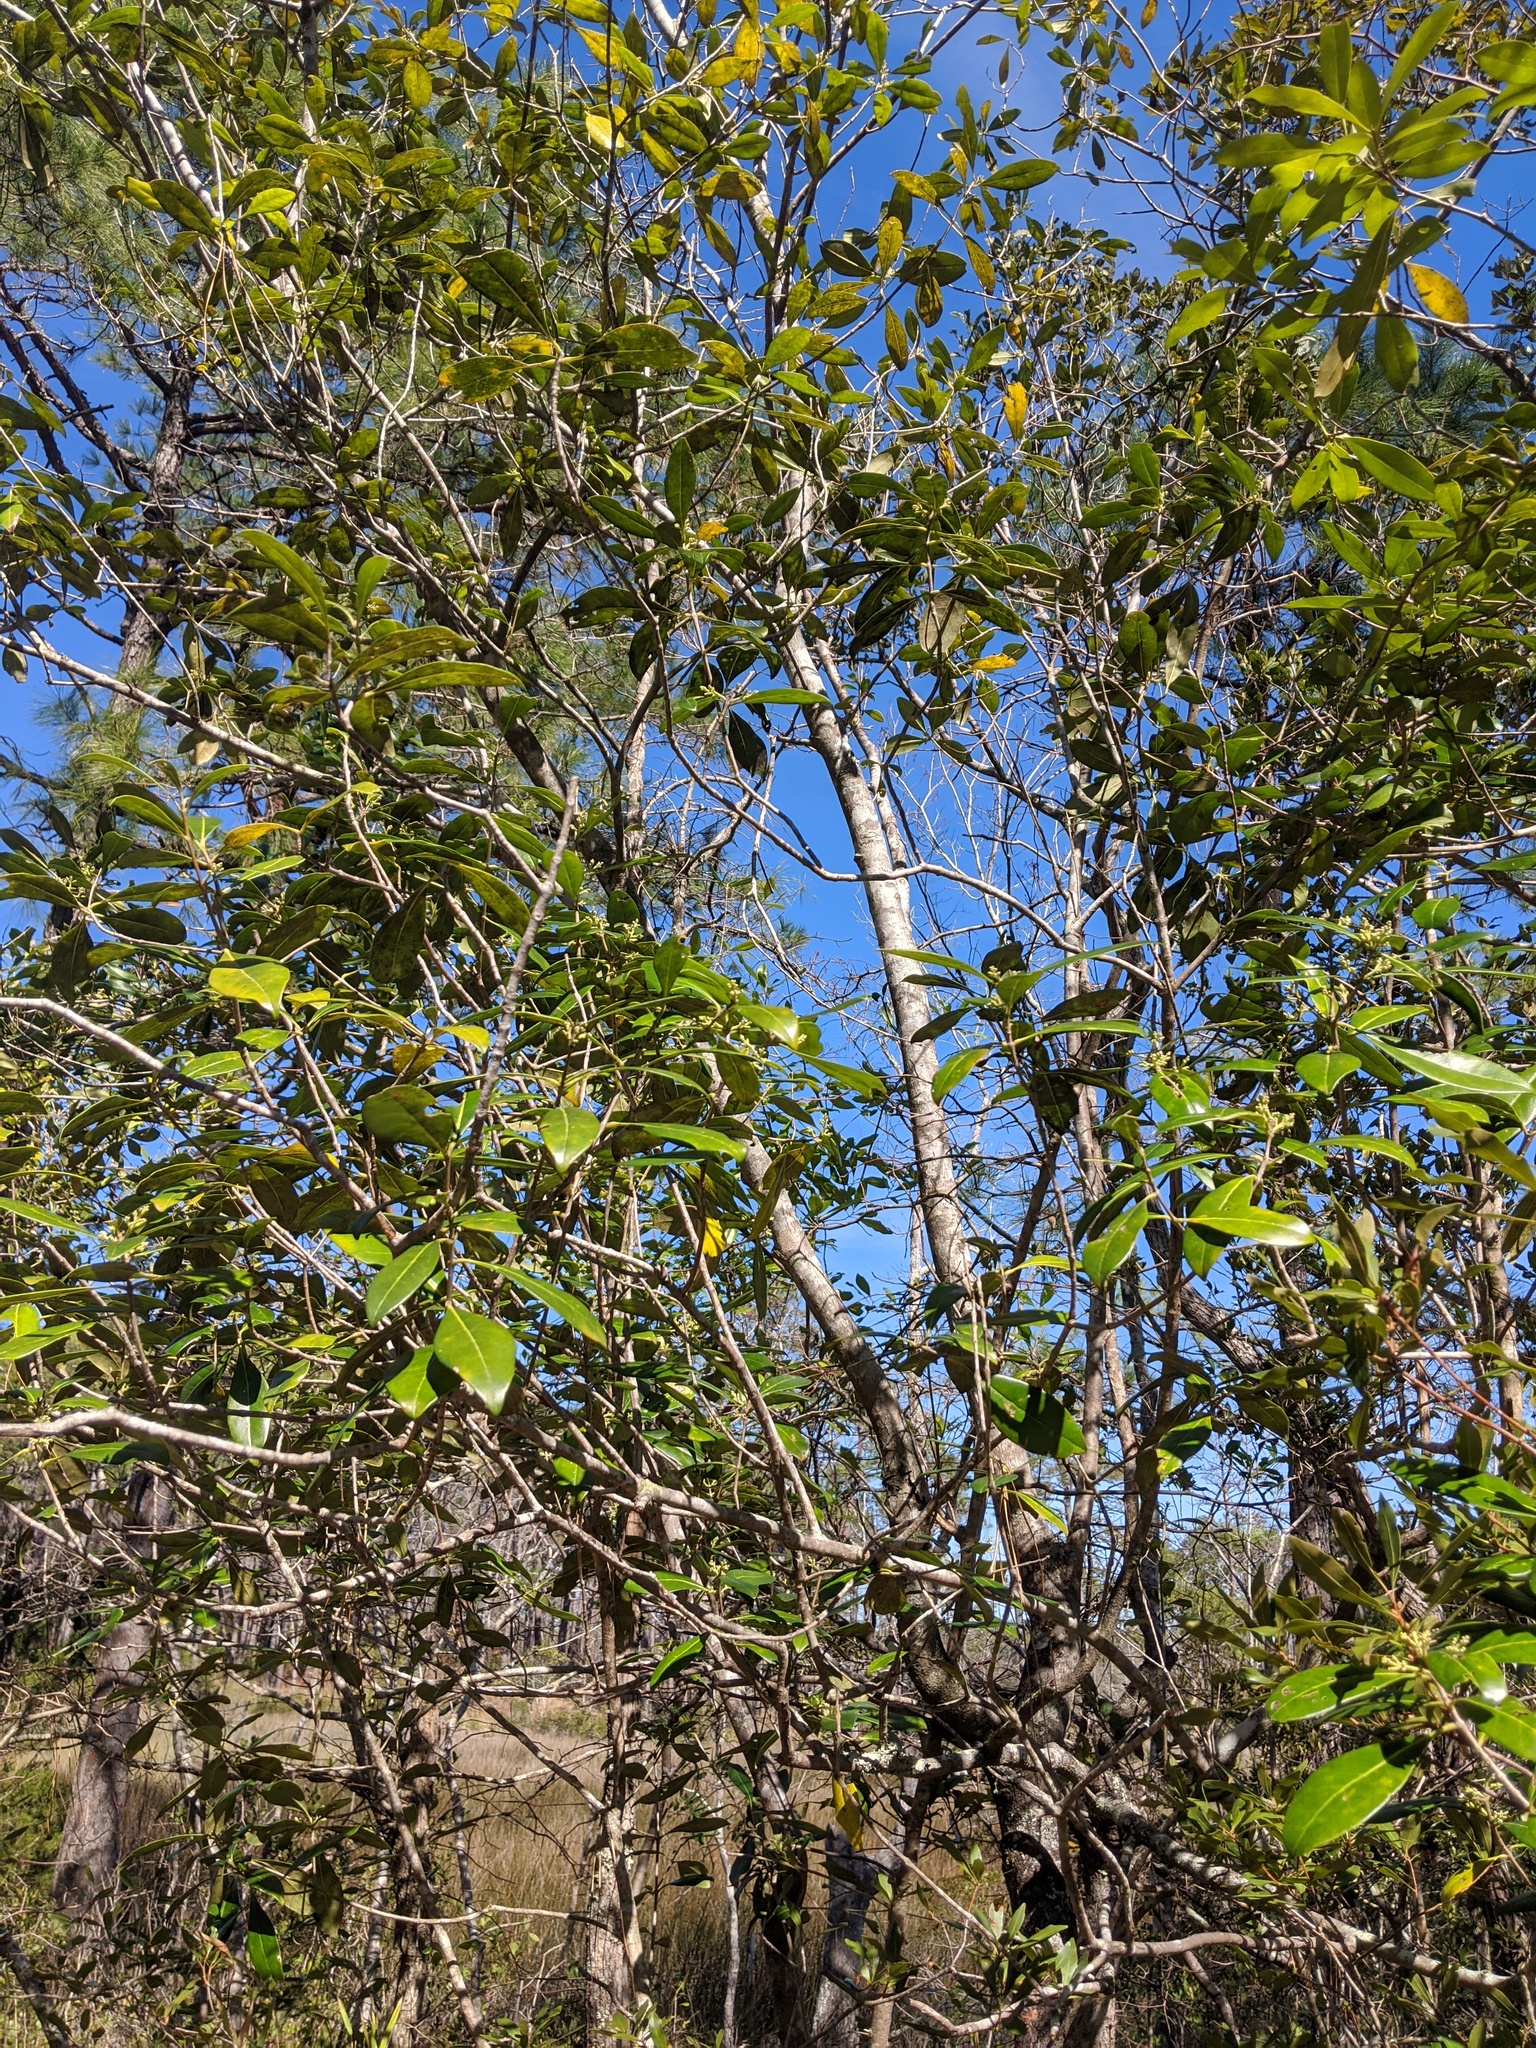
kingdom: Plantae
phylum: Tracheophyta
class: Magnoliopsida
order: Lamiales
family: Oleaceae
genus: Cartrema
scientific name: Cartrema americana
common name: Devilwood
